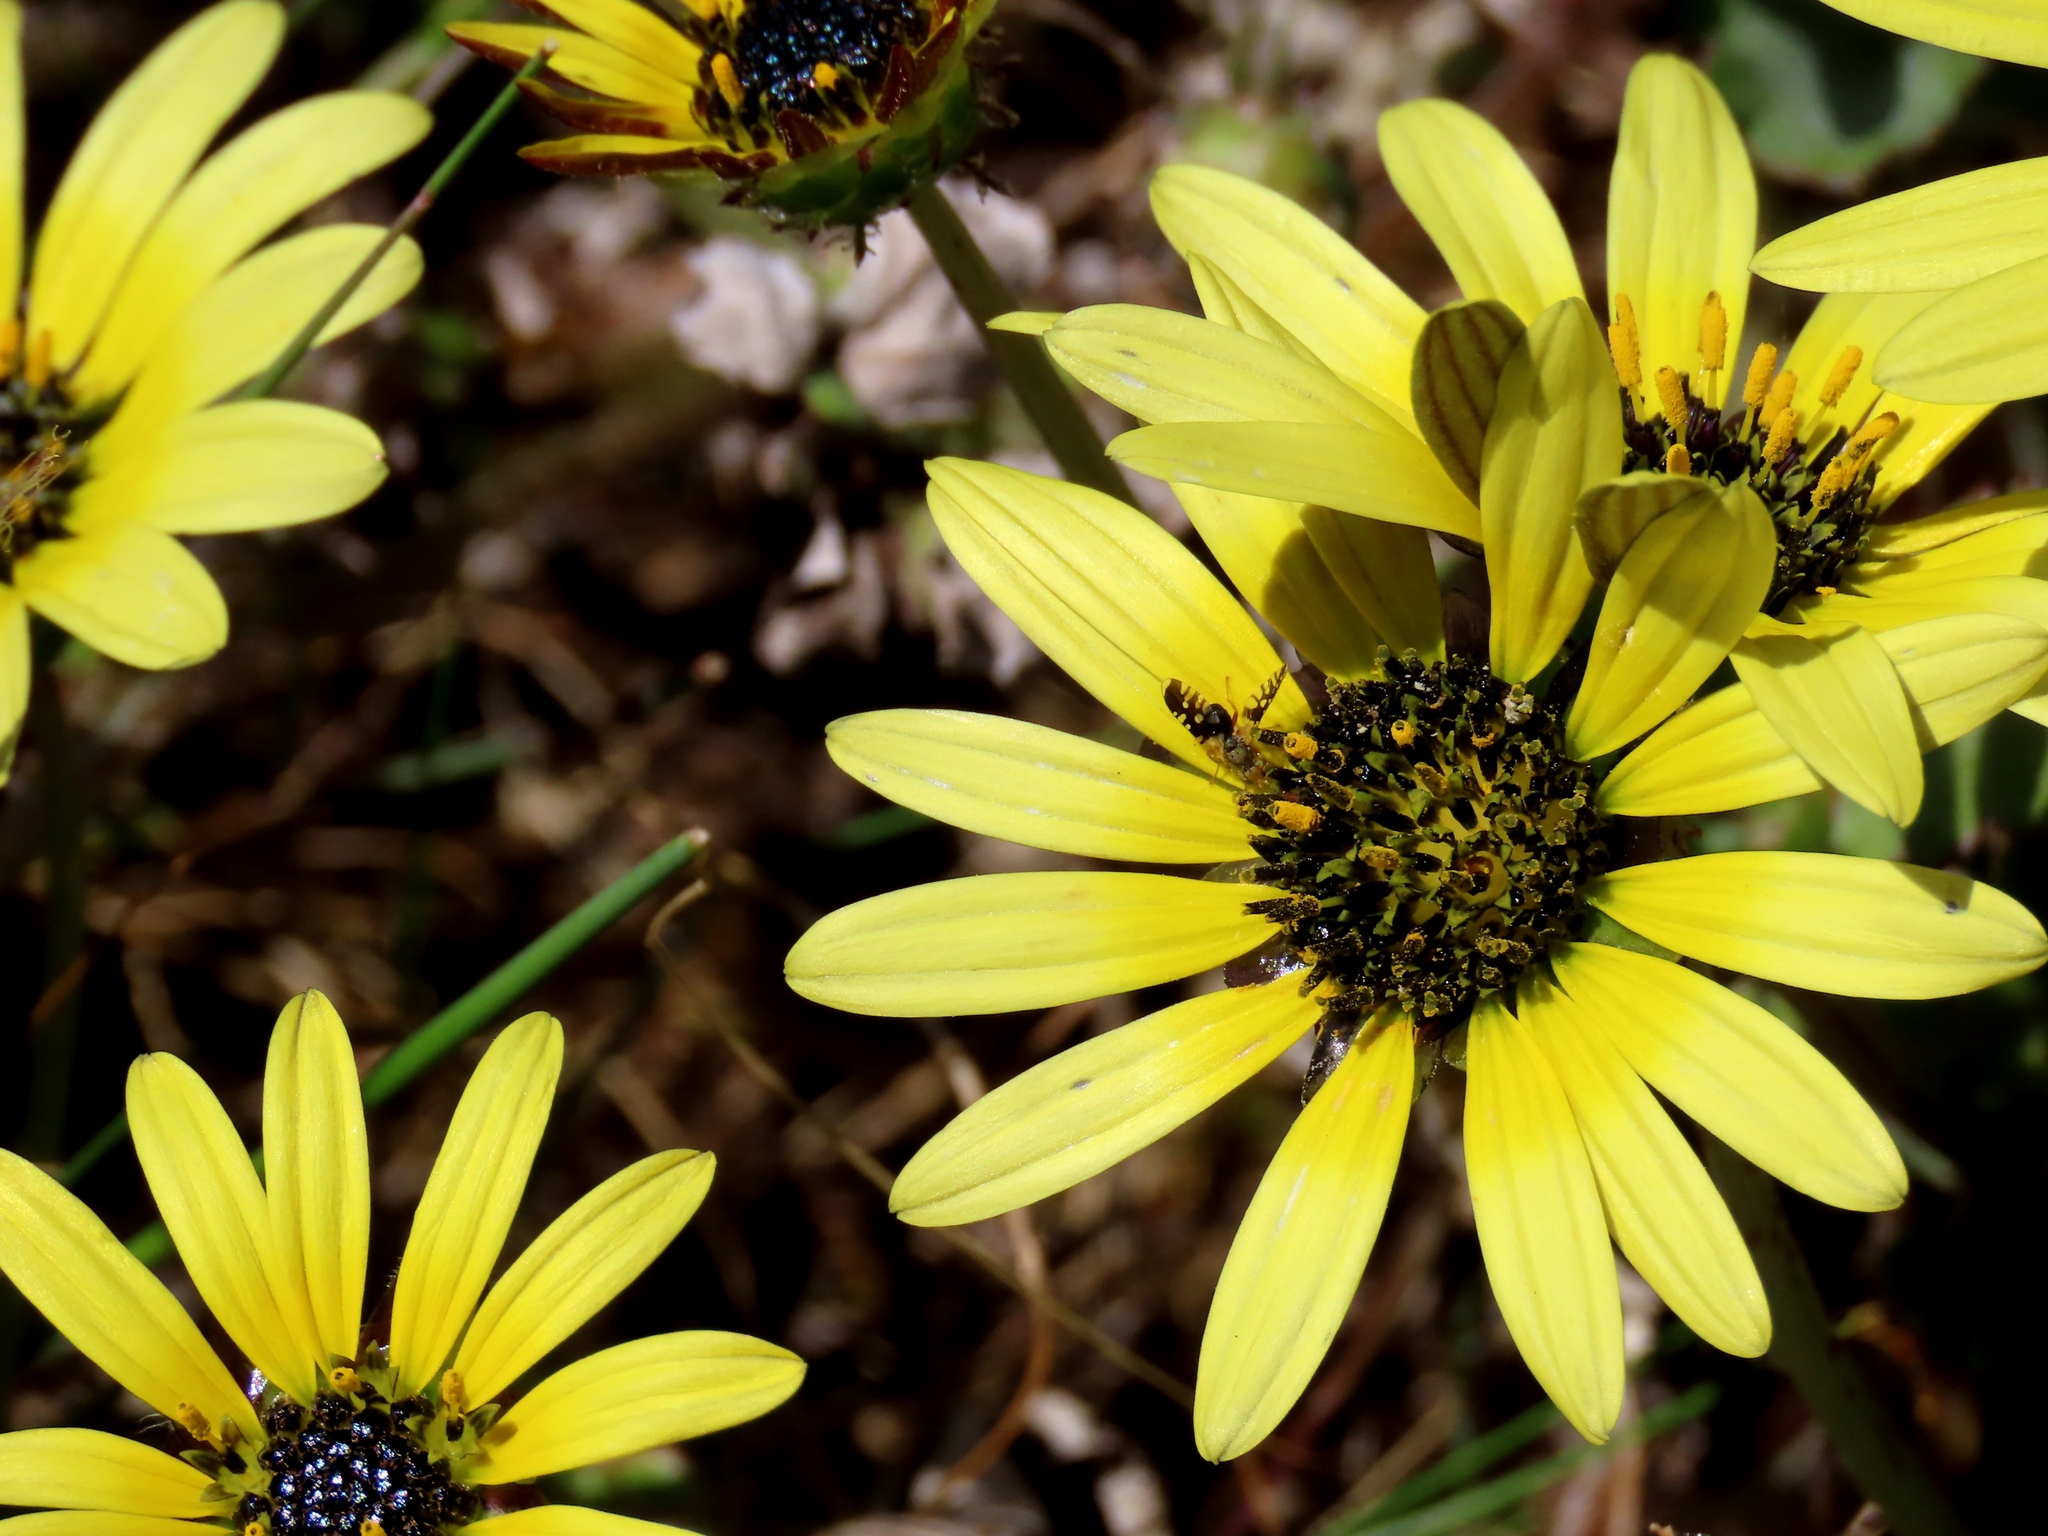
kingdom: Plantae
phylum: Tracheophyta
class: Magnoliopsida
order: Asterales
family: Asteraceae
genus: Arctotheca
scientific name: Arctotheca calendula
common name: Capeweed
